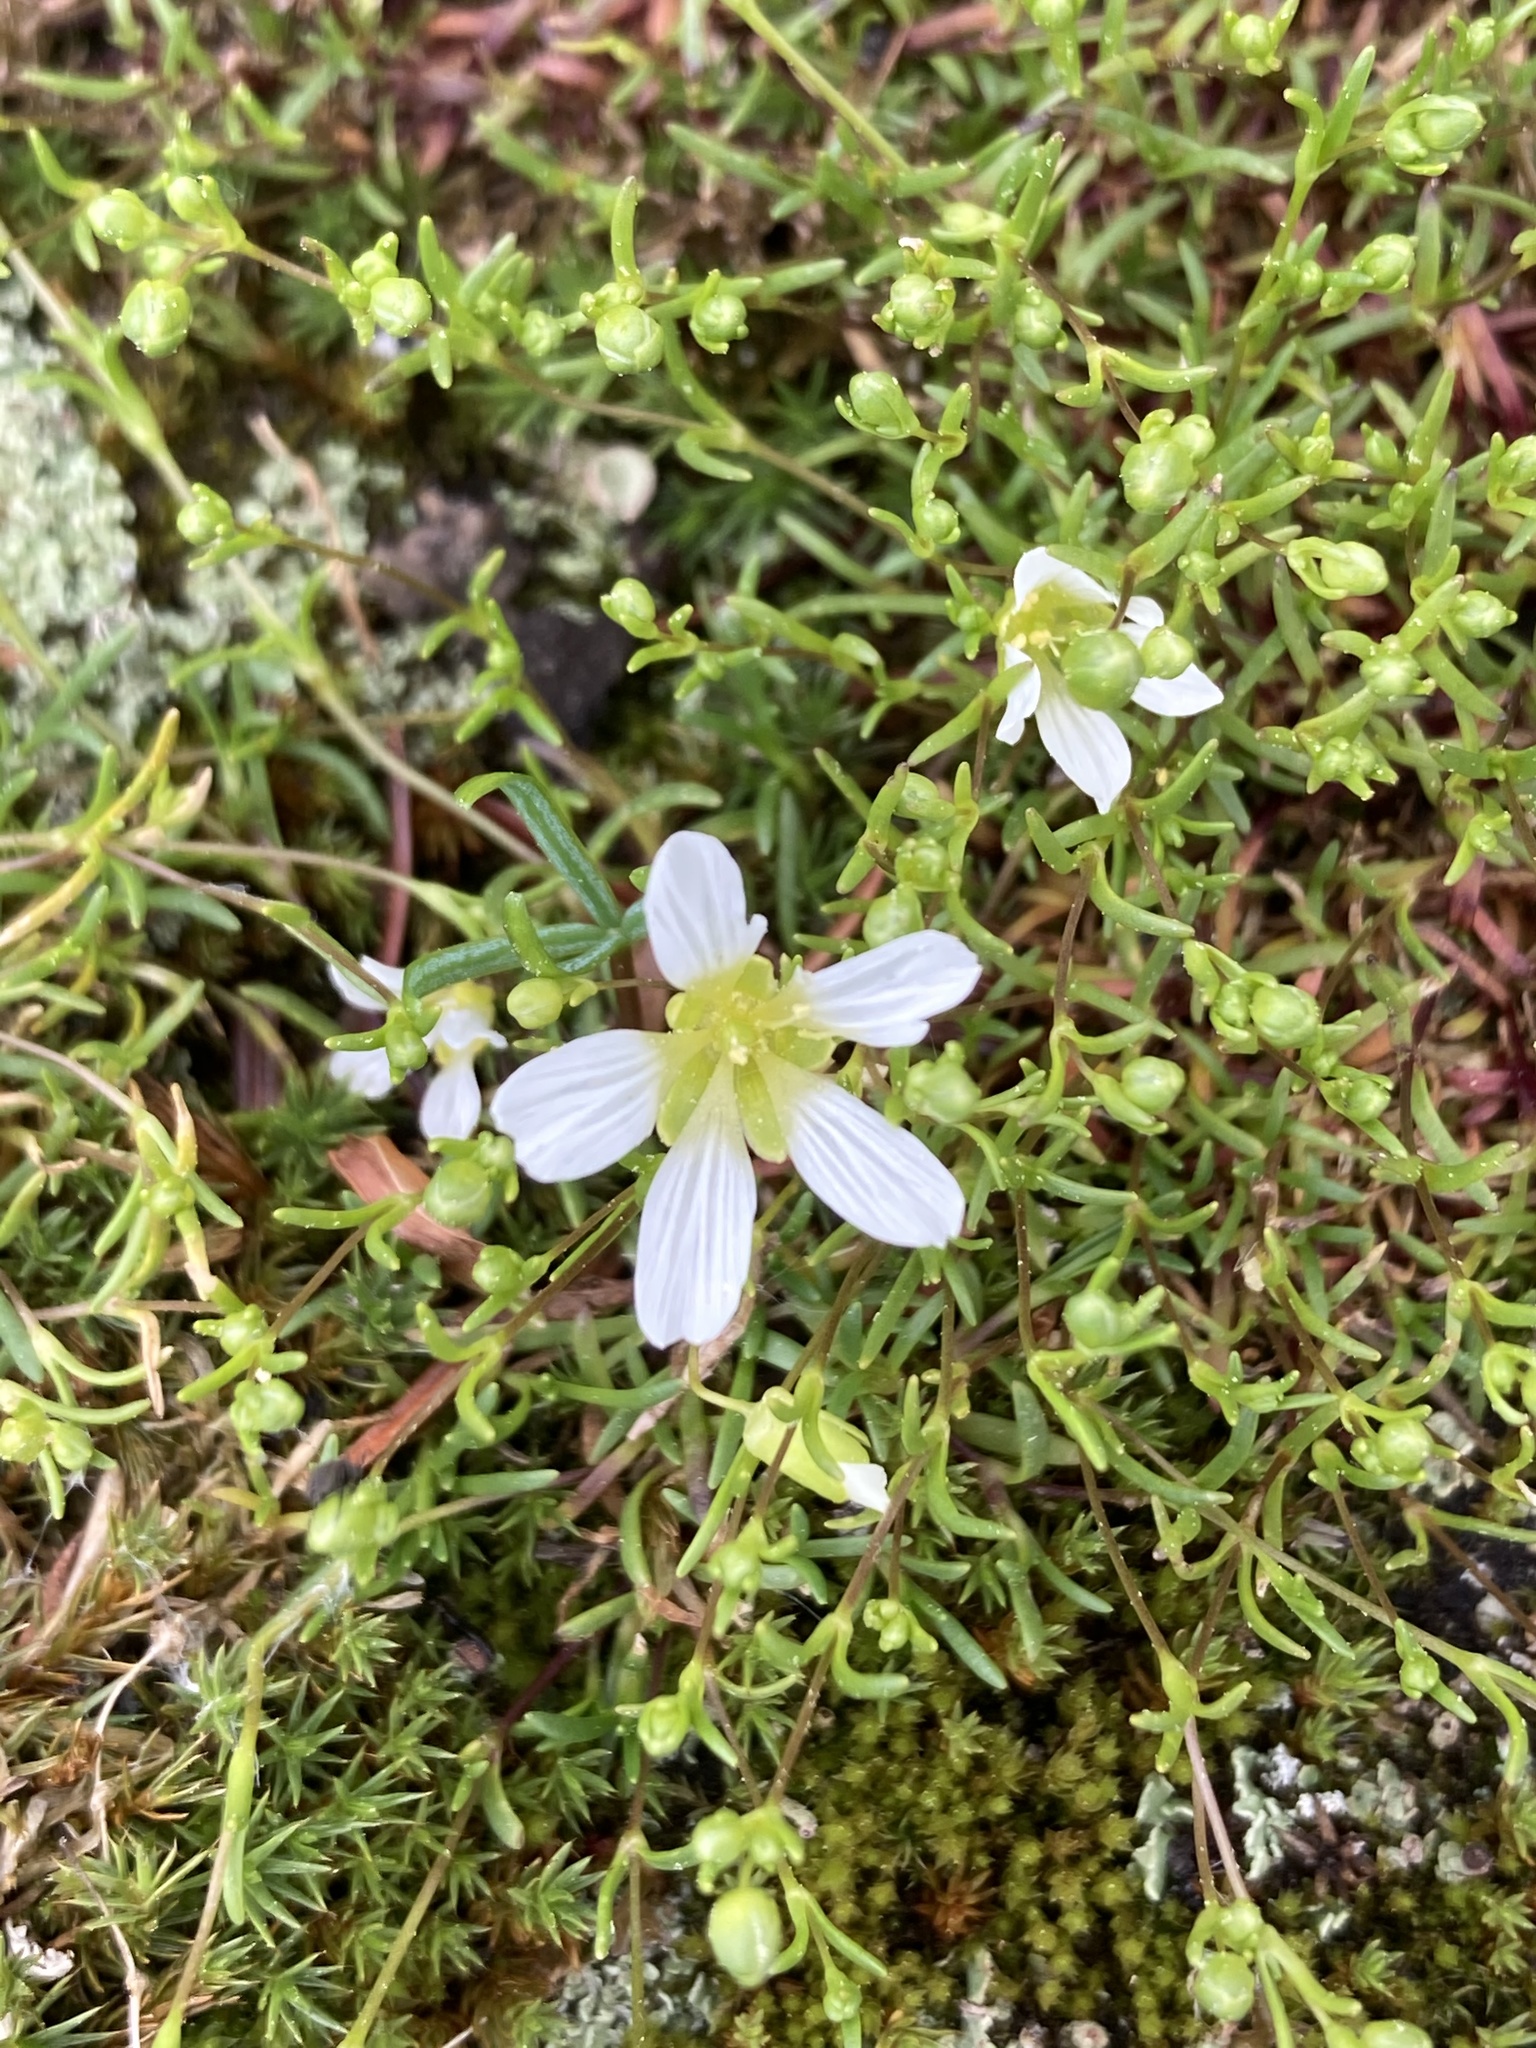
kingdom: Plantae
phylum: Tracheophyta
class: Magnoliopsida
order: Caryophyllales
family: Caryophyllaceae
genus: Geocarpon
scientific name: Geocarpon groenlandicum
